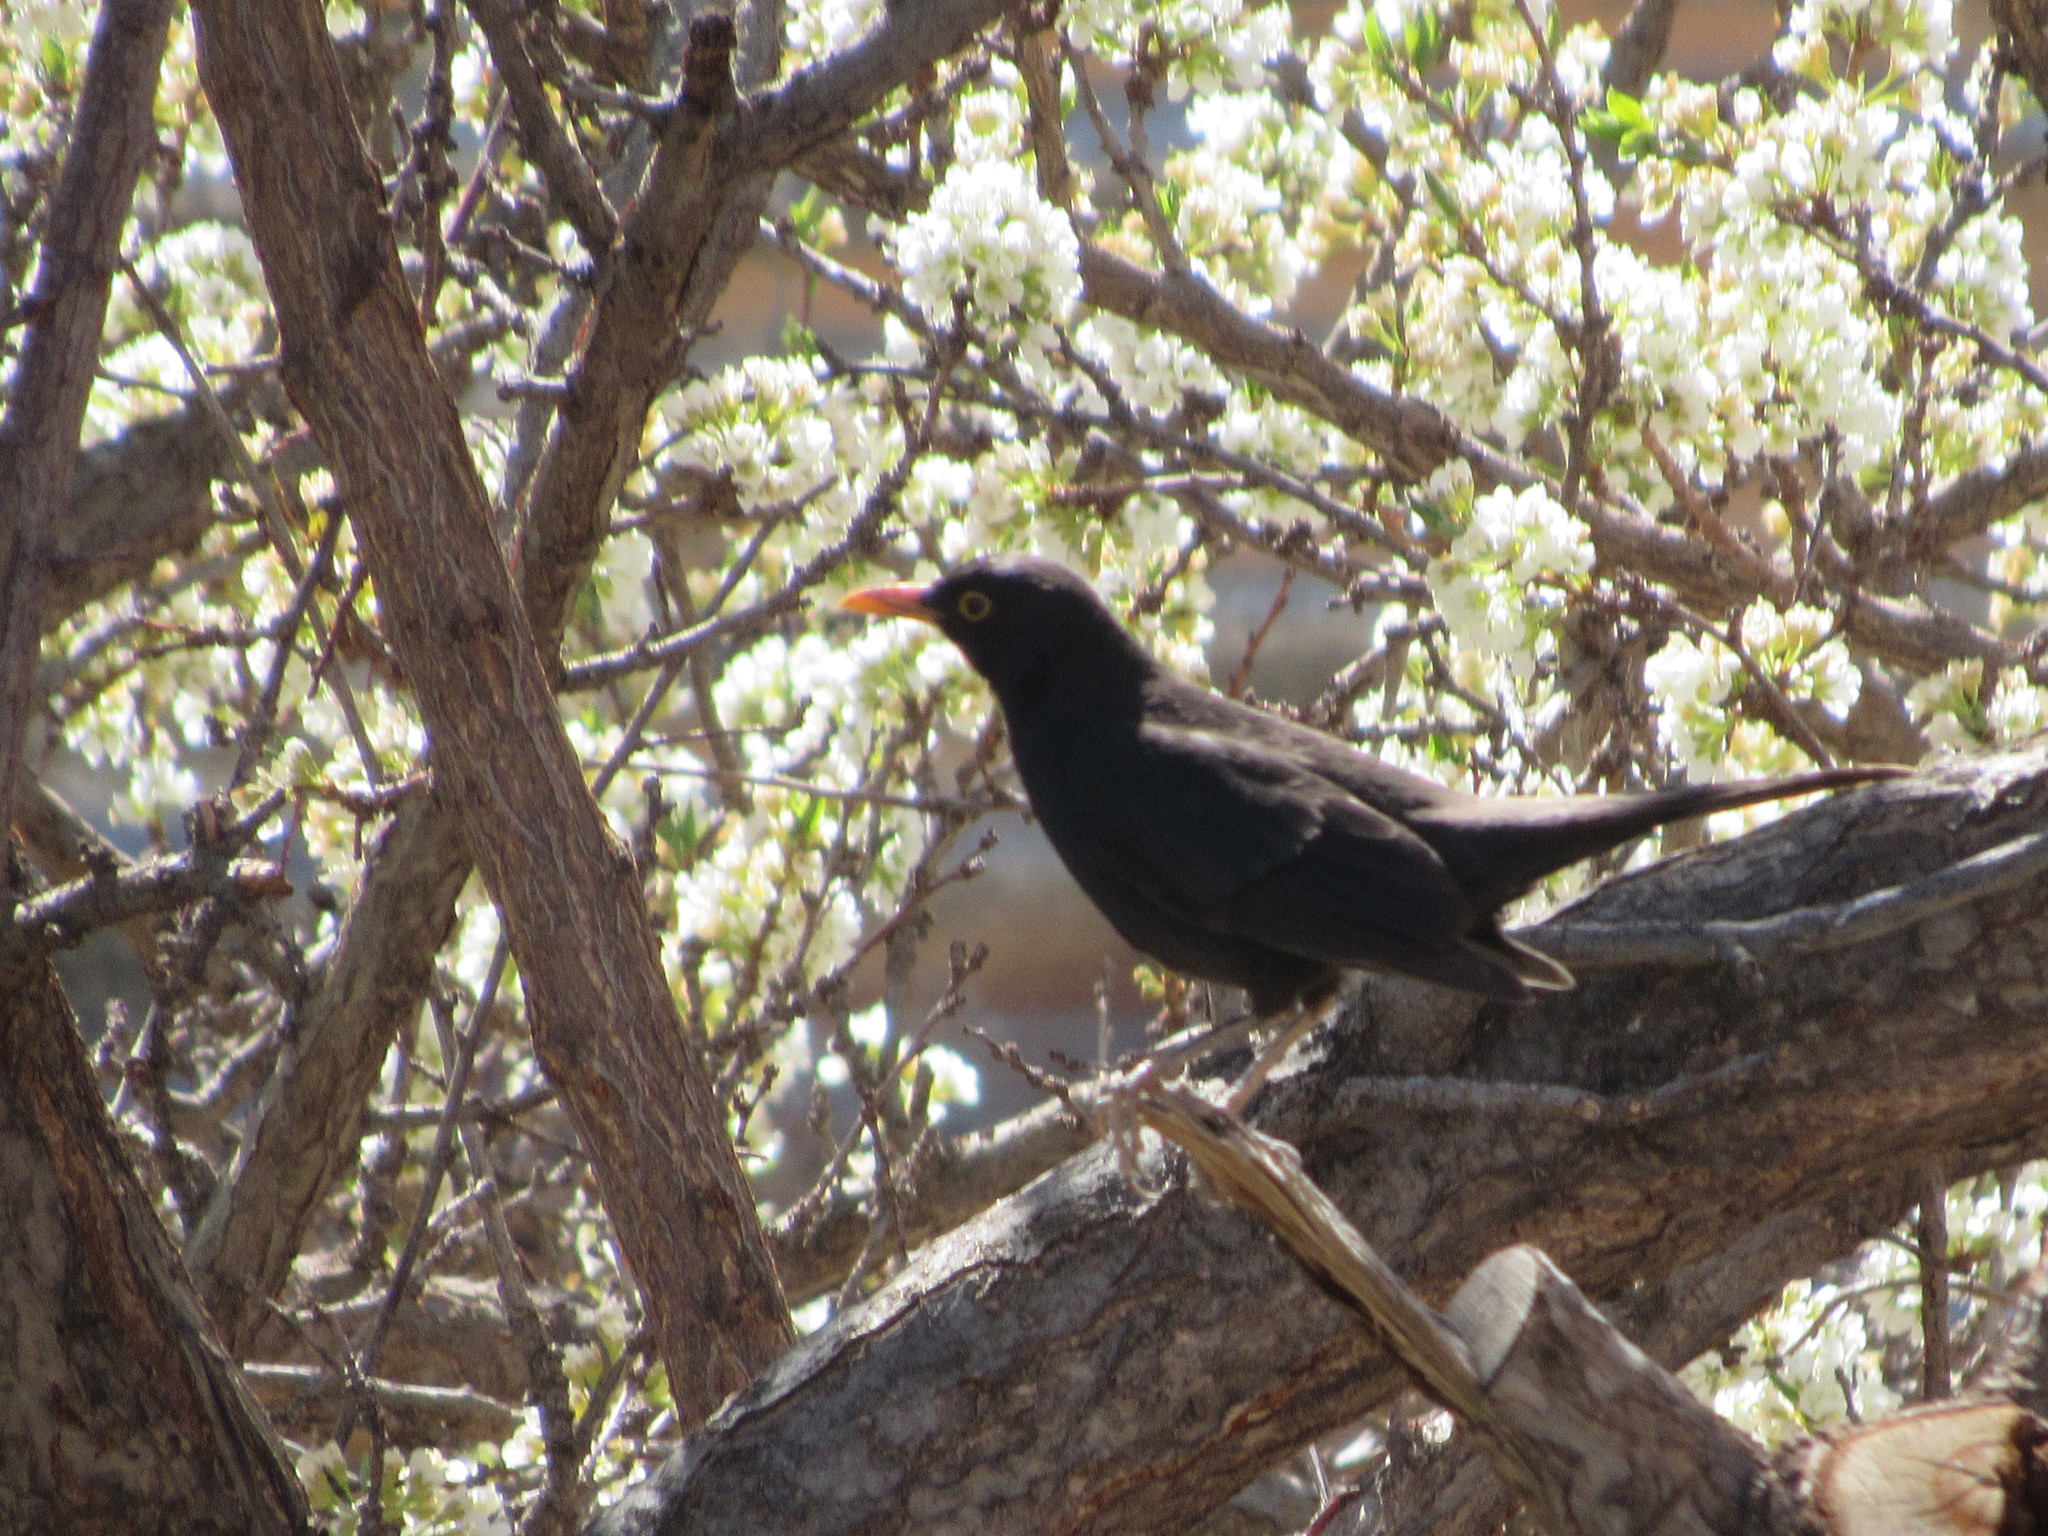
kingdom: Animalia
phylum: Chordata
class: Aves
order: Passeriformes
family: Turdidae
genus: Turdus
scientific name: Turdus merula
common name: Common blackbird
